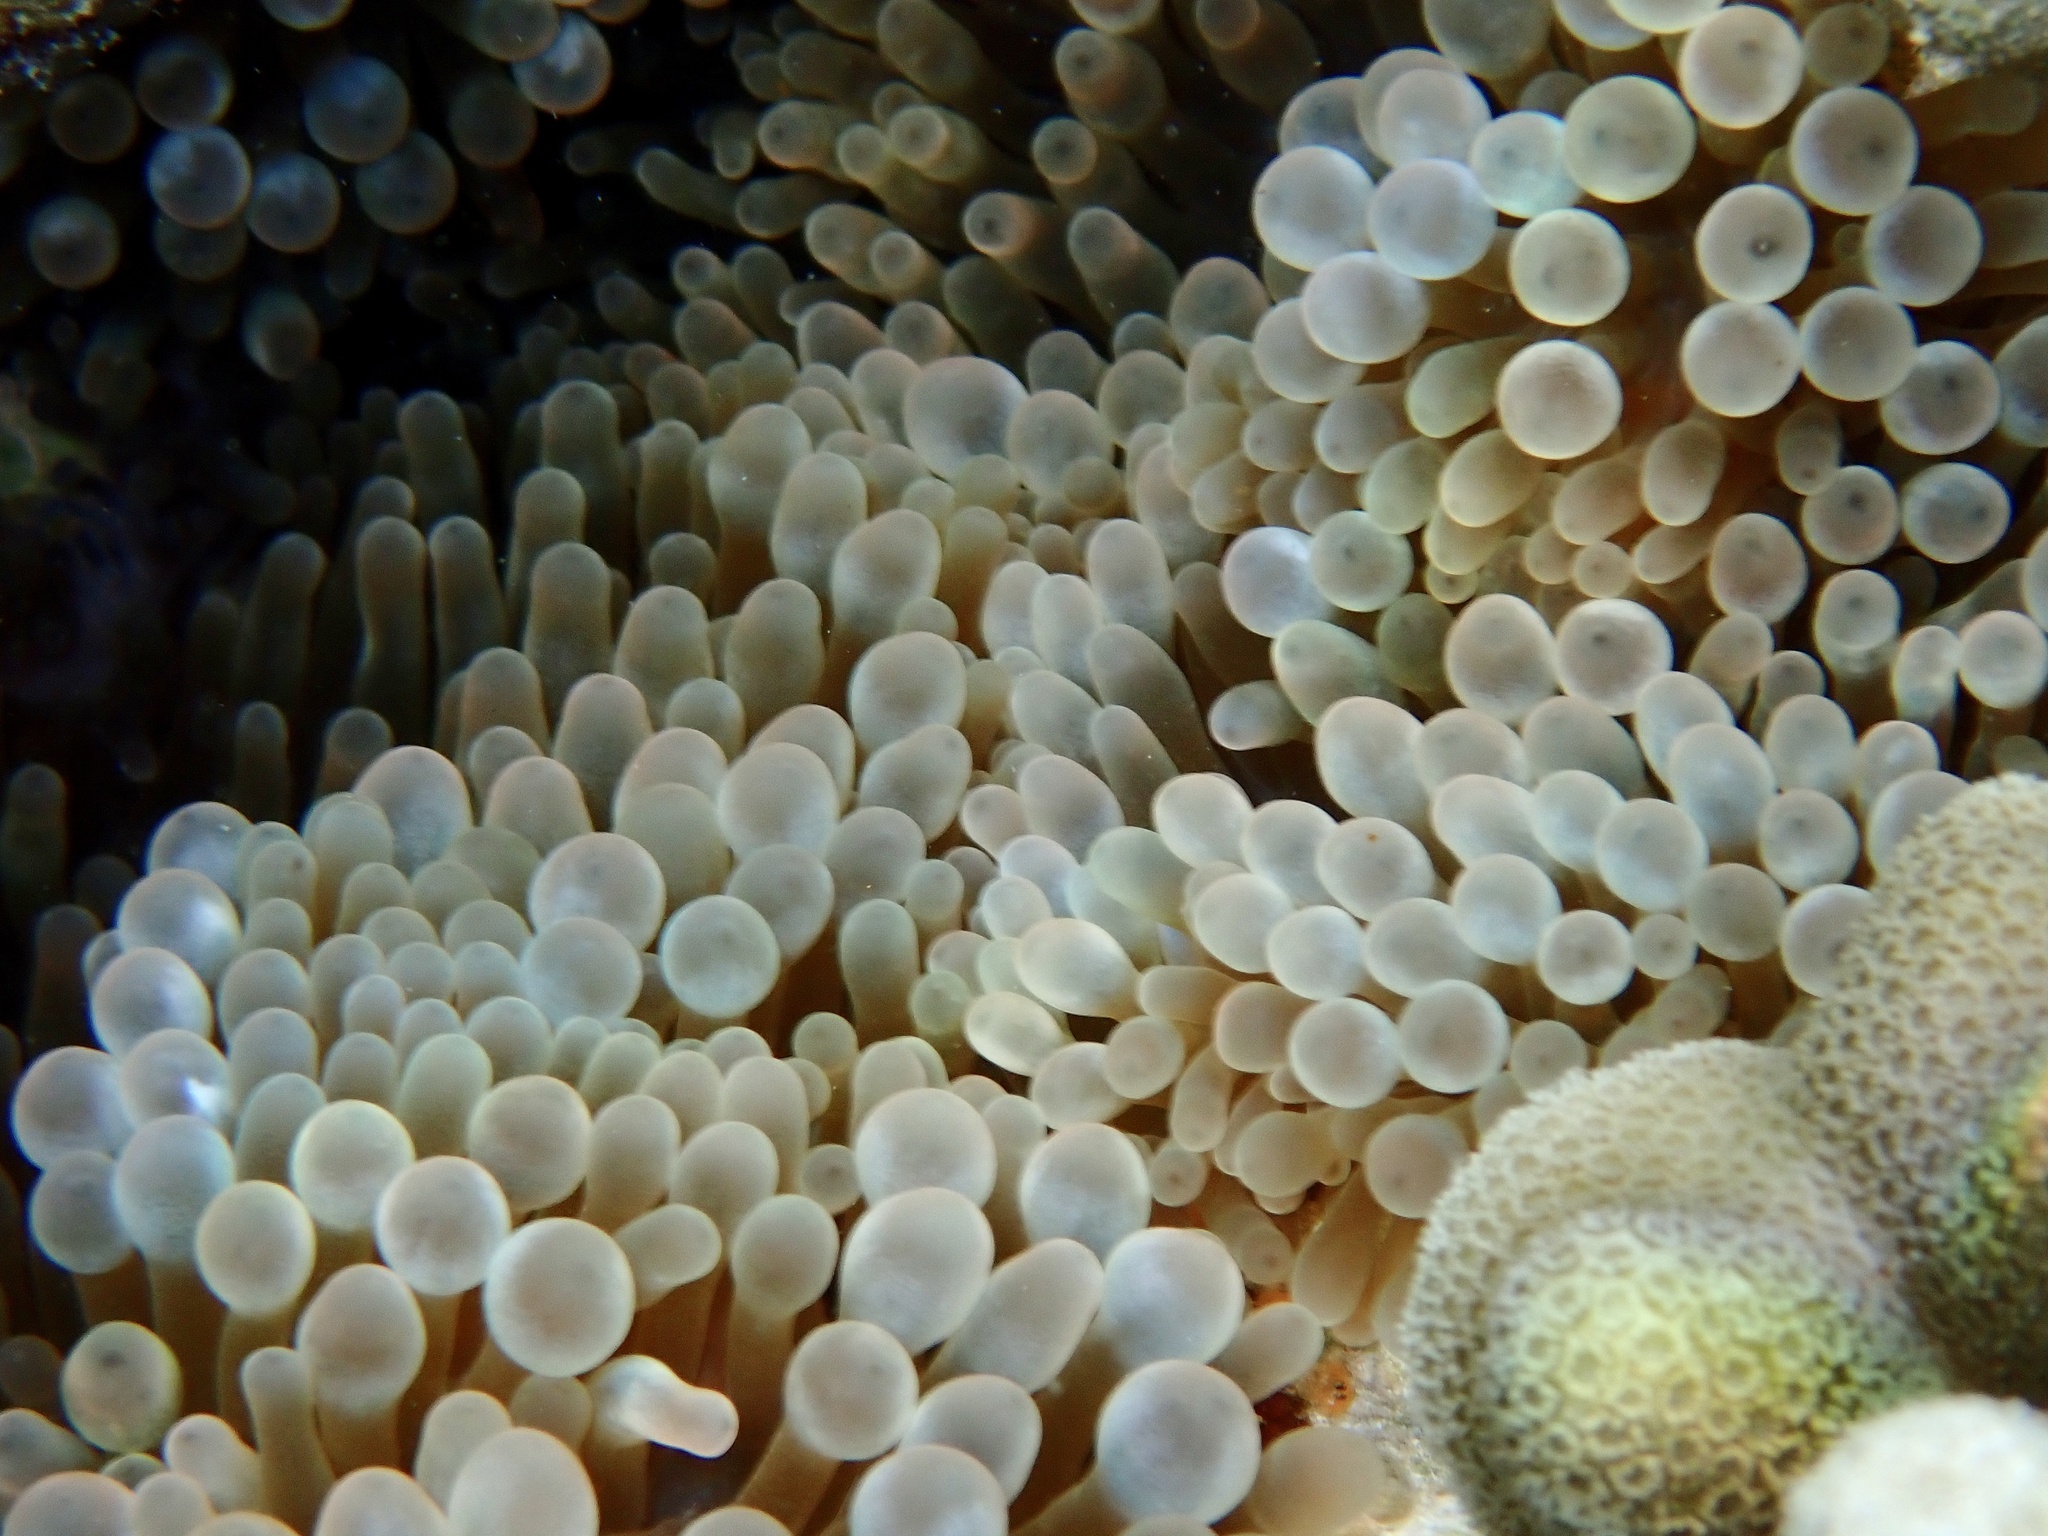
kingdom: Animalia
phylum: Cnidaria
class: Anthozoa
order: Actiniaria
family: Actiniidae
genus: Entacmaea
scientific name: Entacmaea quadricolor
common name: Bulb tentacle sea anemone
